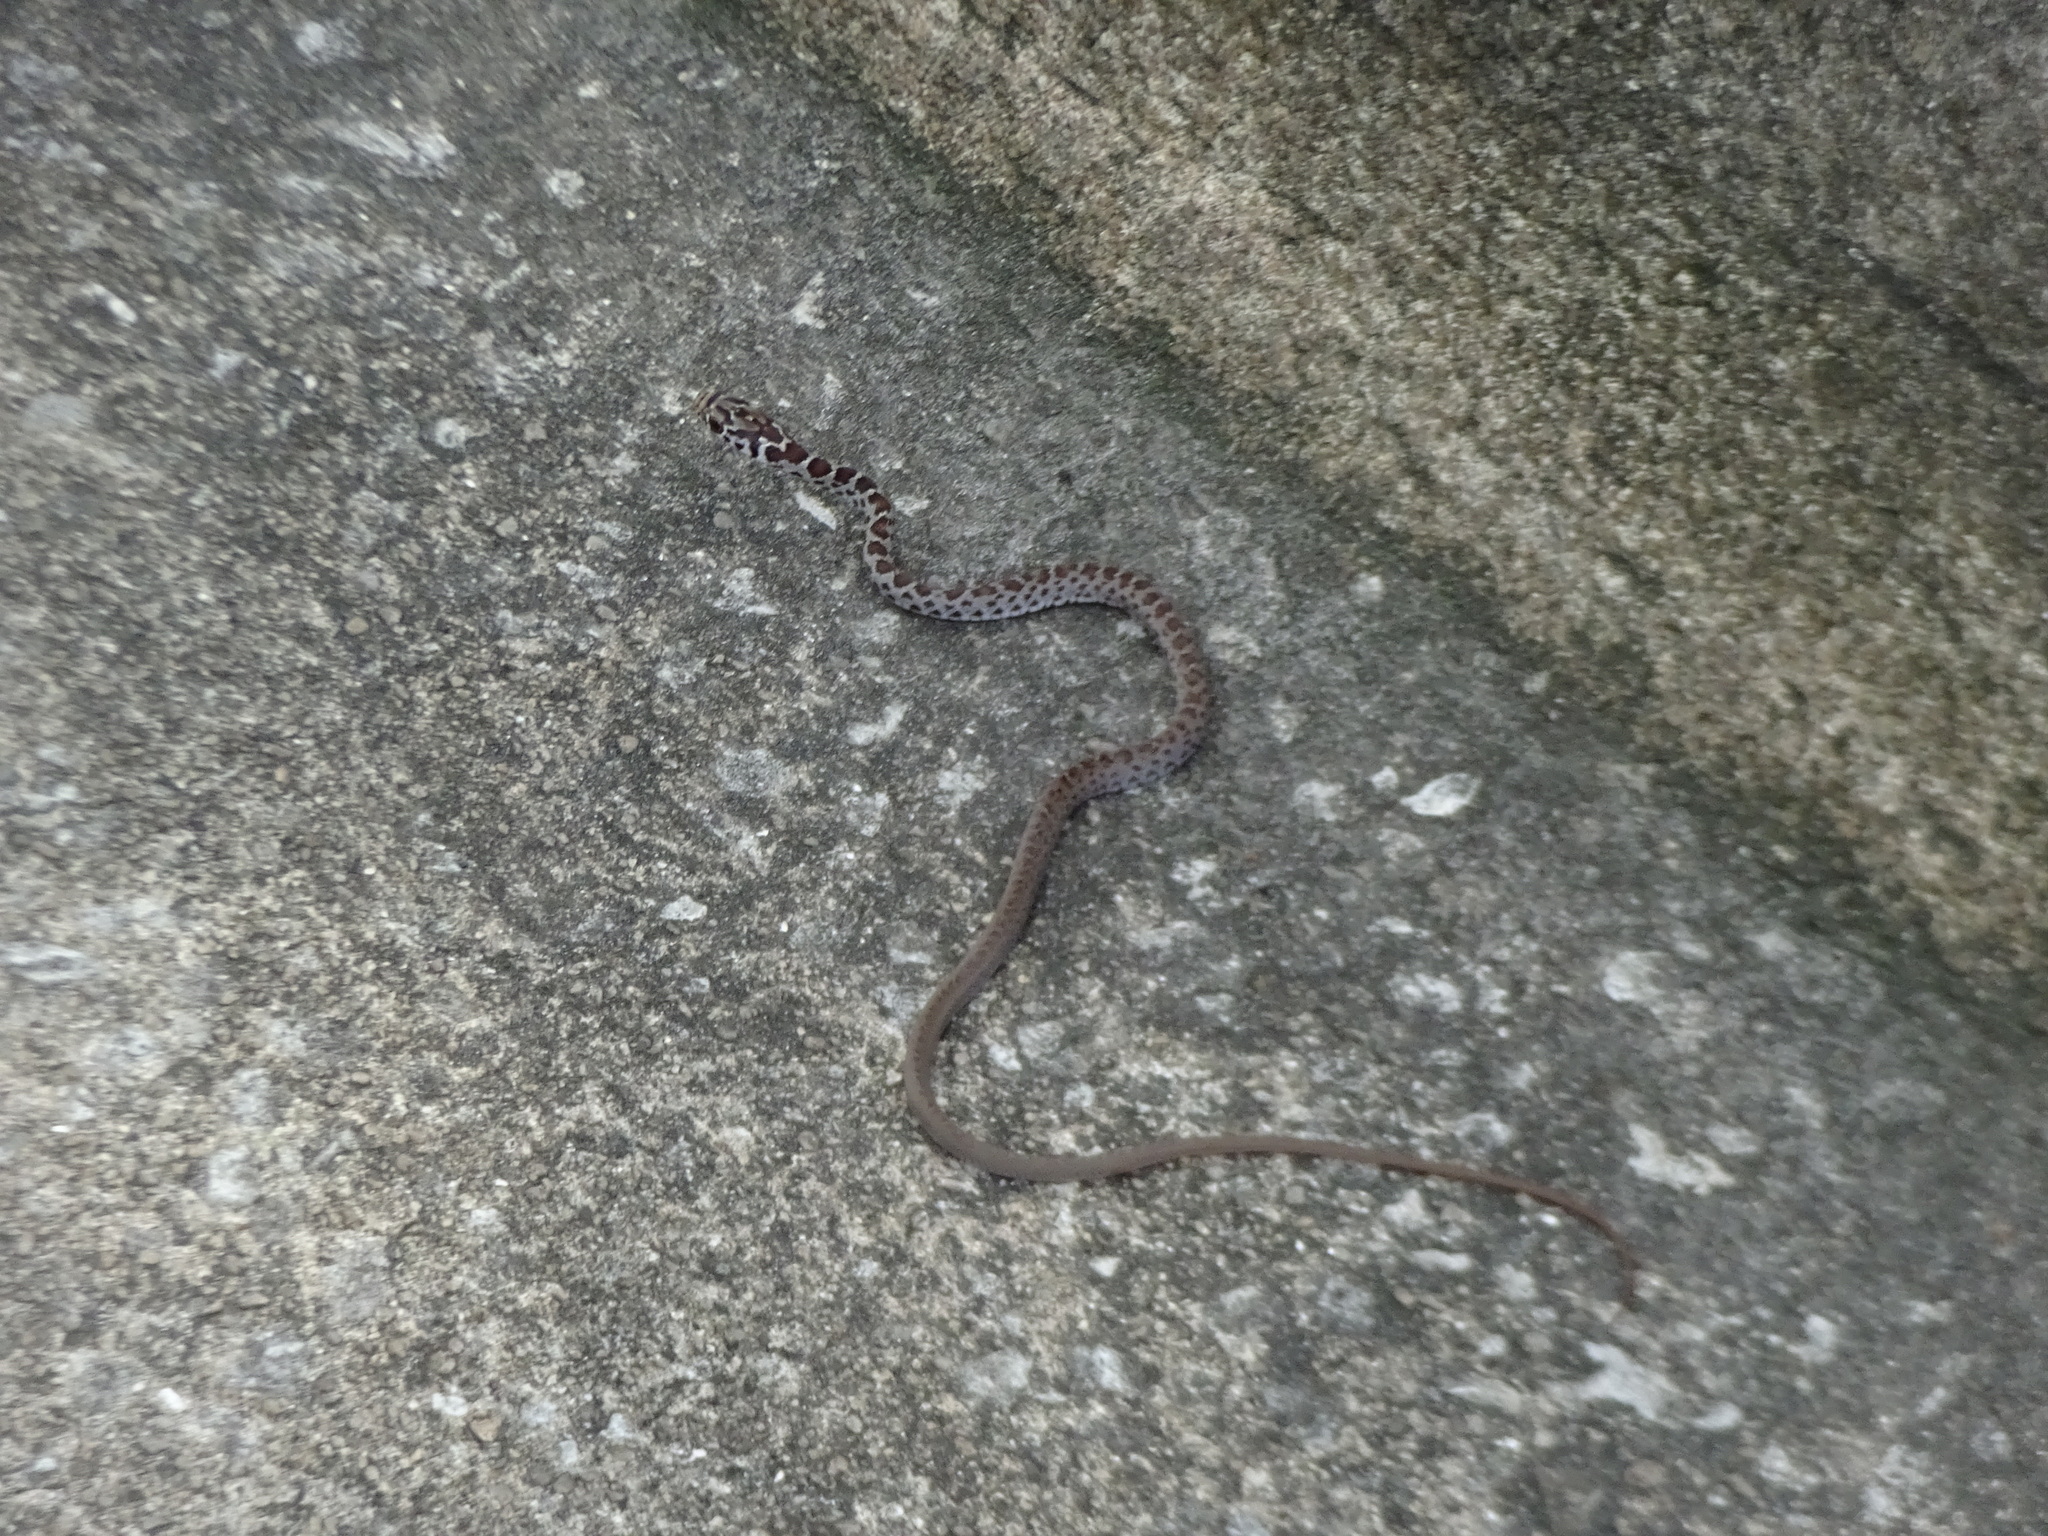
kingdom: Animalia
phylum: Chordata
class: Squamata
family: Colubridae
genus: Coluber
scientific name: Coluber constrictor
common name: Eastern racer
